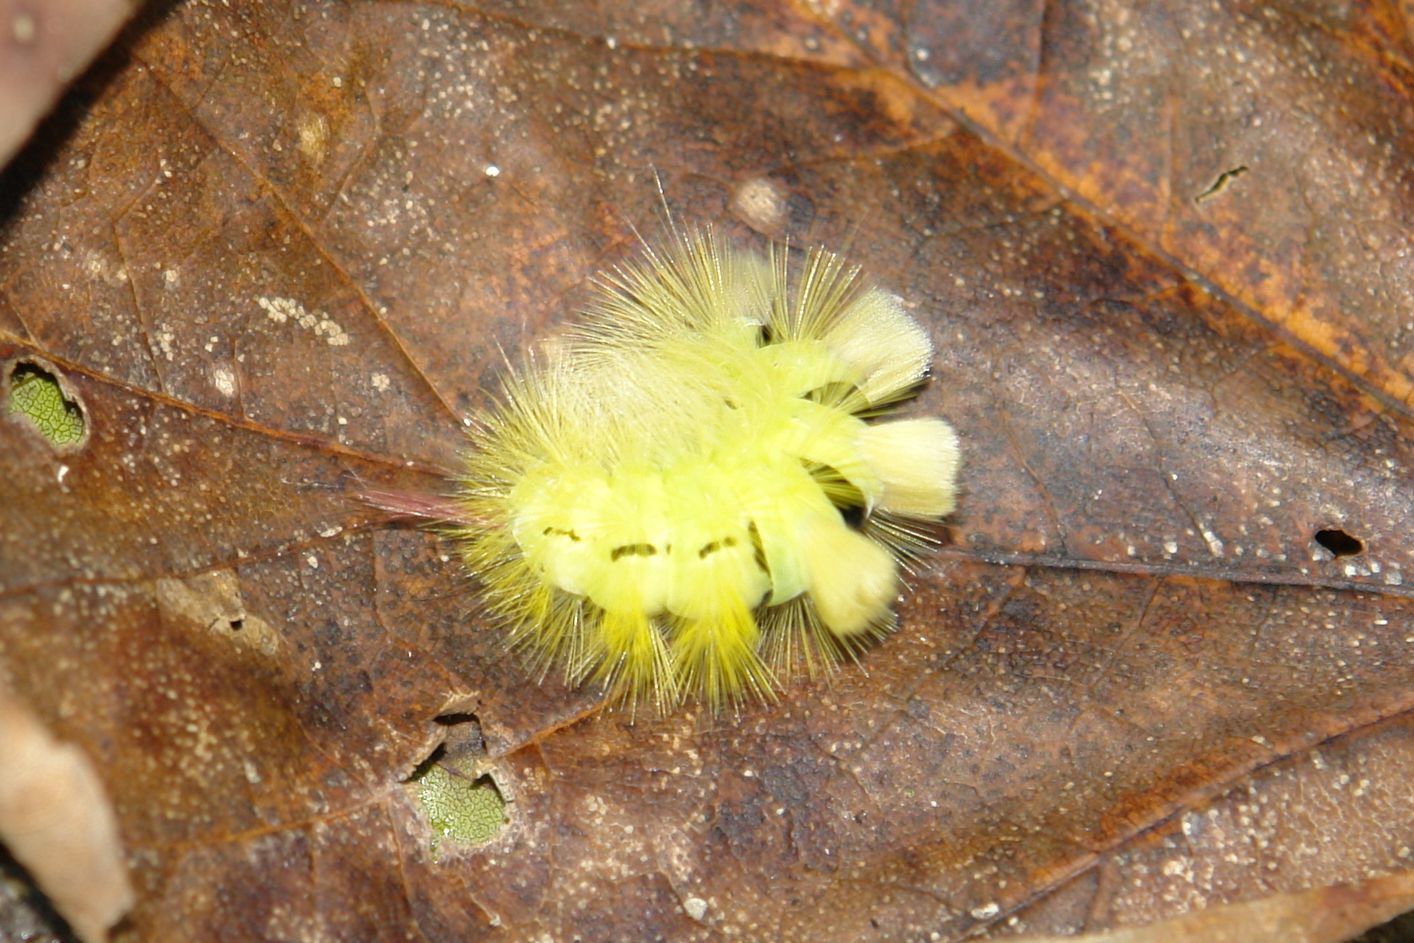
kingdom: Animalia
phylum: Arthropoda
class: Insecta
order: Lepidoptera
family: Erebidae
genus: Calliteara
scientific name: Calliteara pudibunda
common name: Pale tussock
